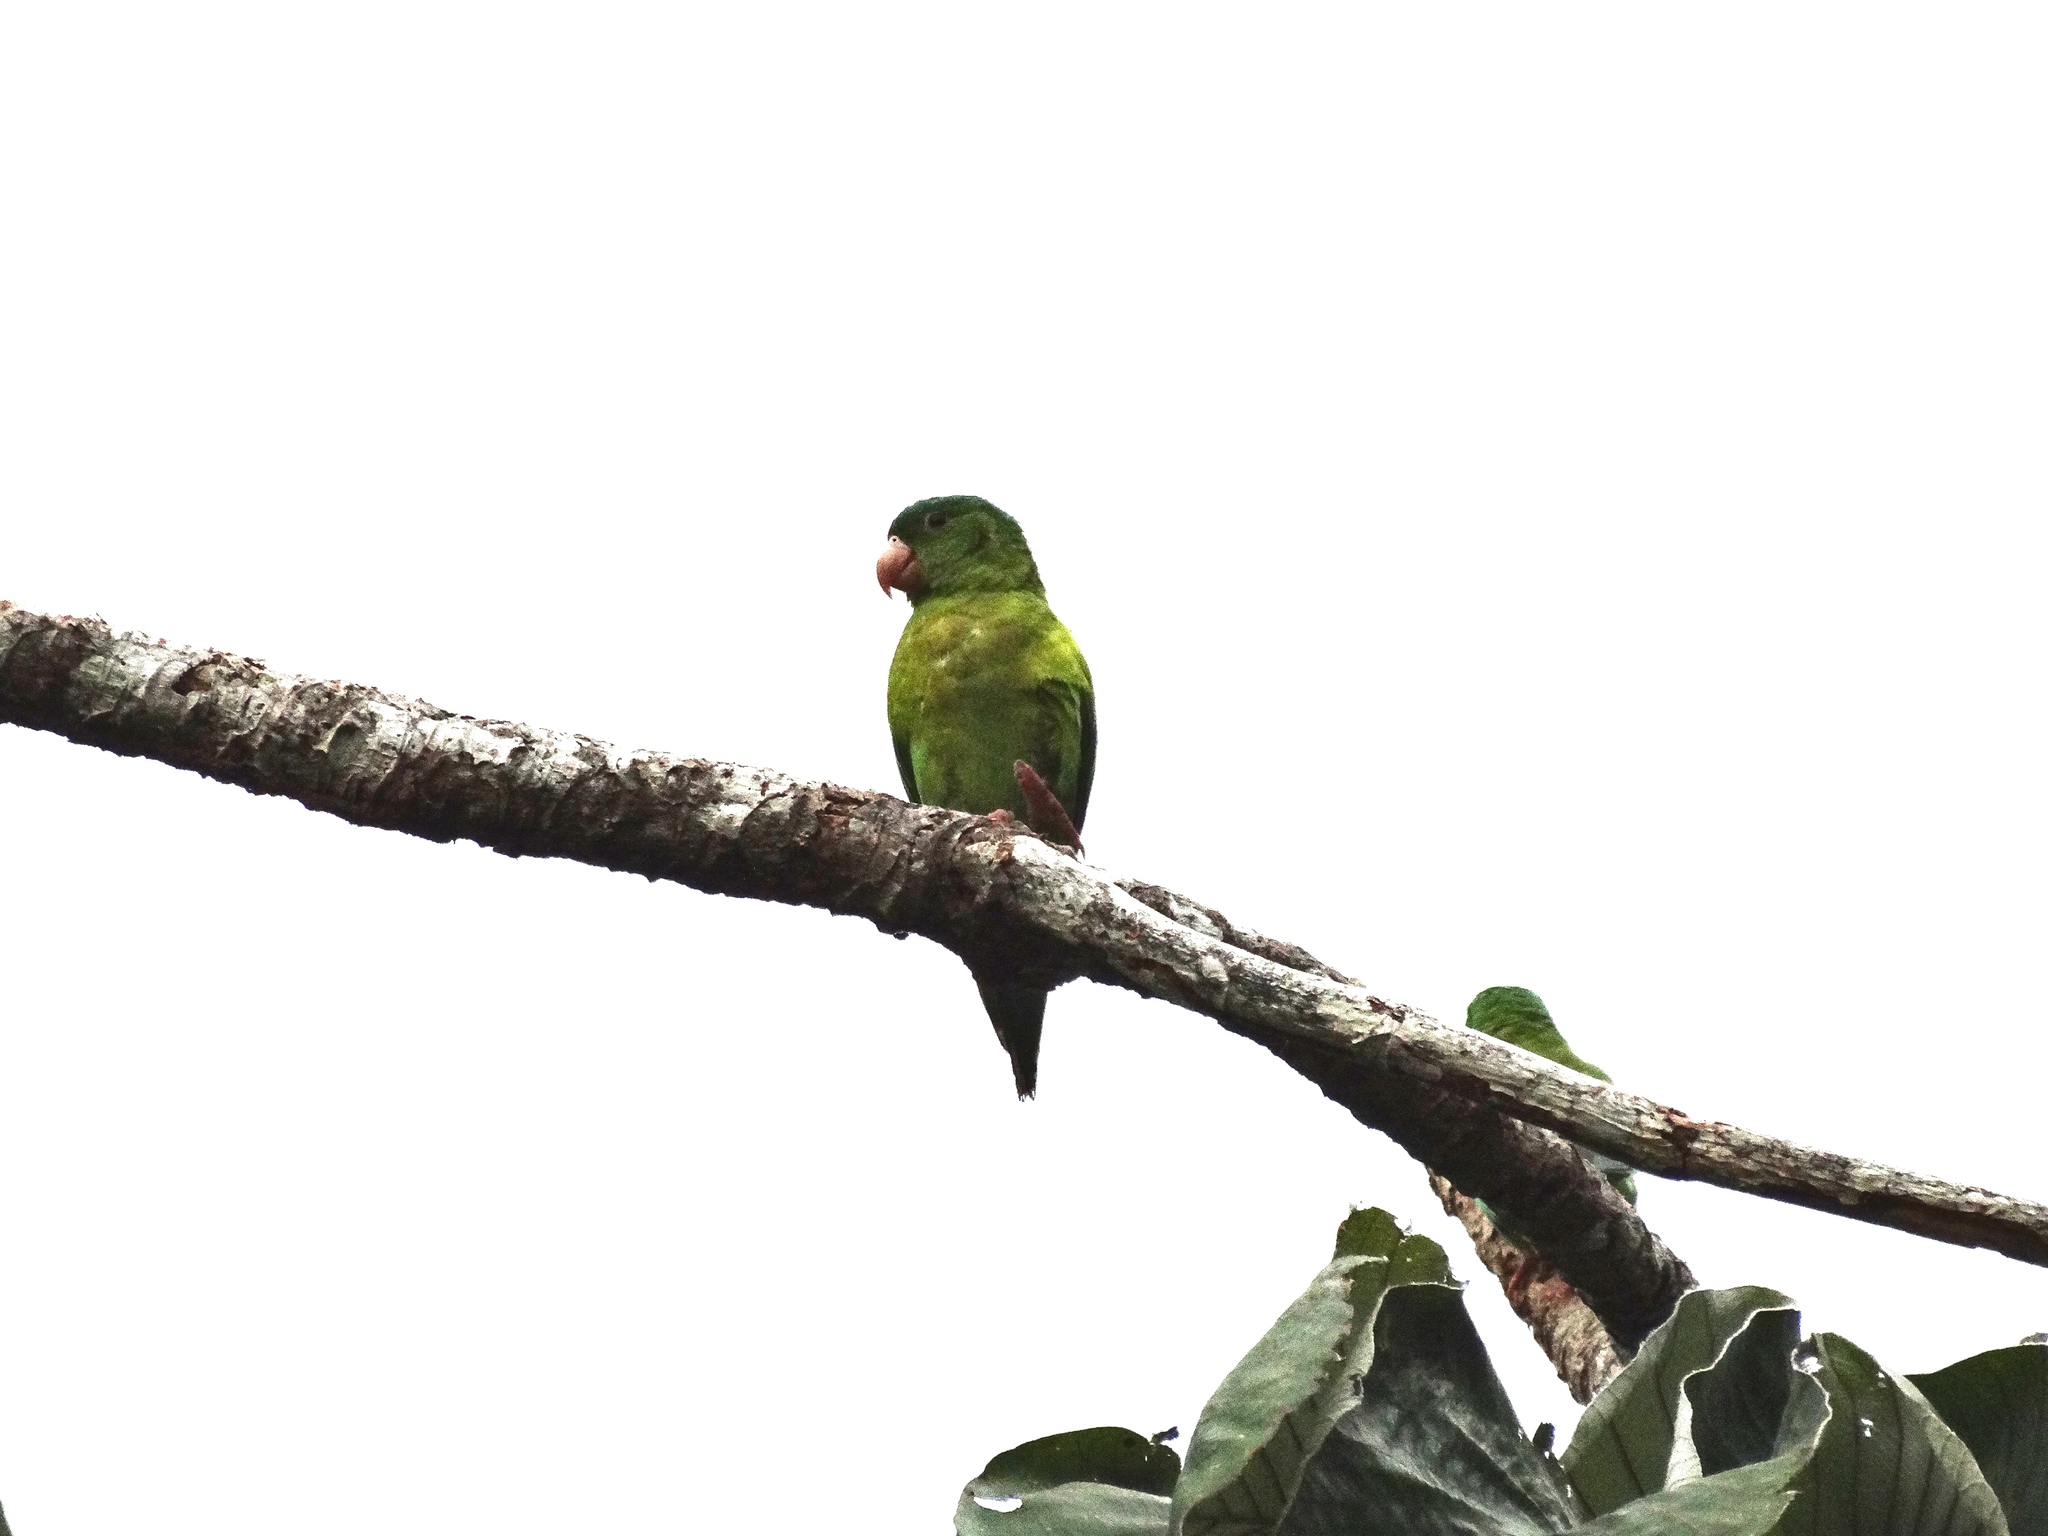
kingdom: Animalia
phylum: Chordata
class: Aves
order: Psittaciformes
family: Psittacidae
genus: Brotogeris
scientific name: Brotogeris jugularis
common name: Orange-chinned parakeet
